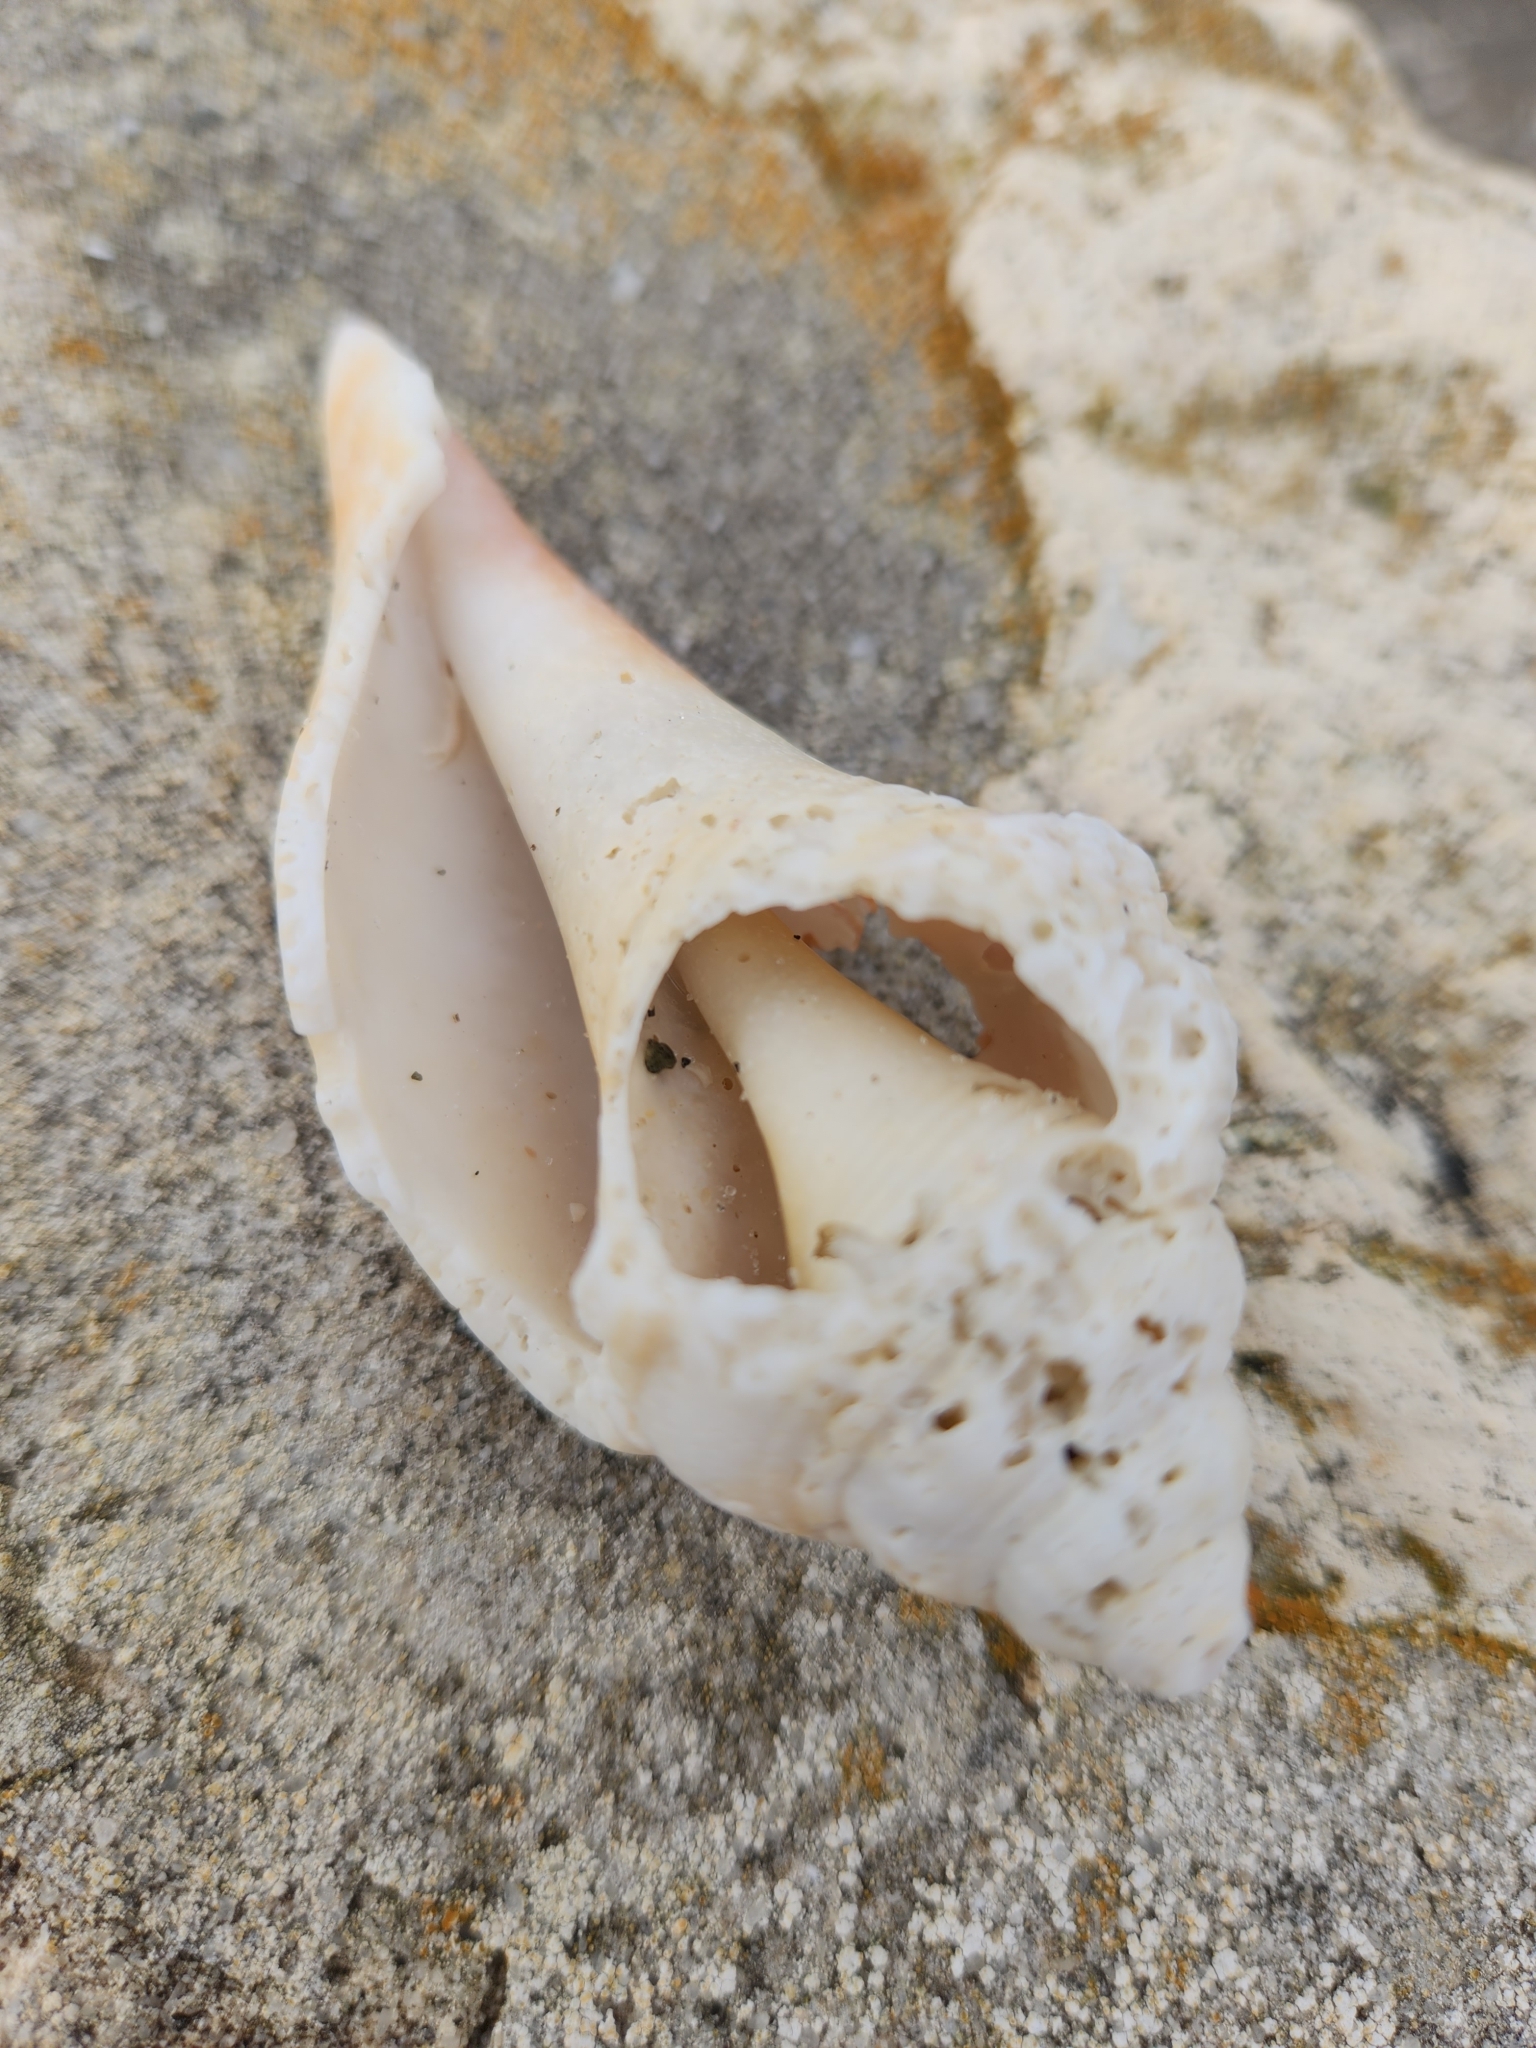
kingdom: Animalia
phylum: Mollusca
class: Gastropoda
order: Littorinimorpha
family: Strombidae
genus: Strombus
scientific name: Strombus alatus
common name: Florida fighting conch
